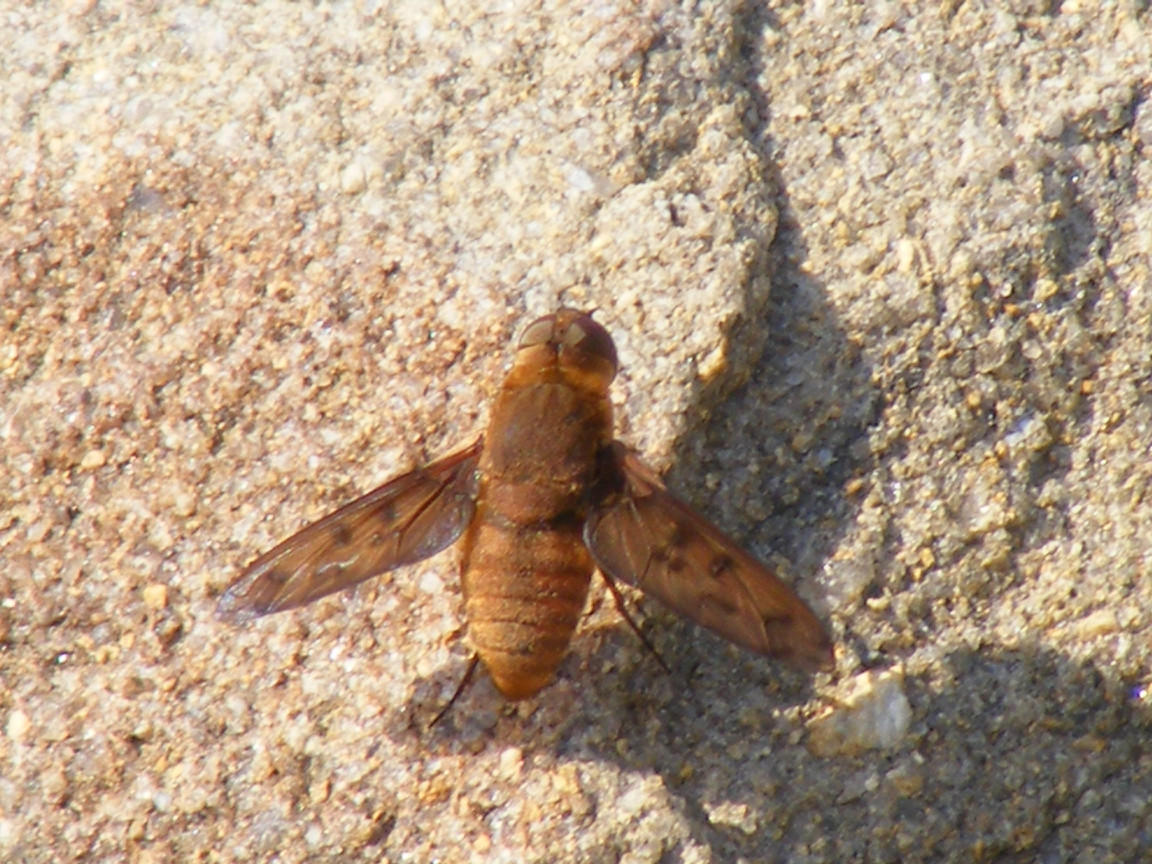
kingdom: Animalia
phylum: Arthropoda
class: Insecta
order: Diptera
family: Bombyliidae
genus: Euligyra
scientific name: Euligyra
